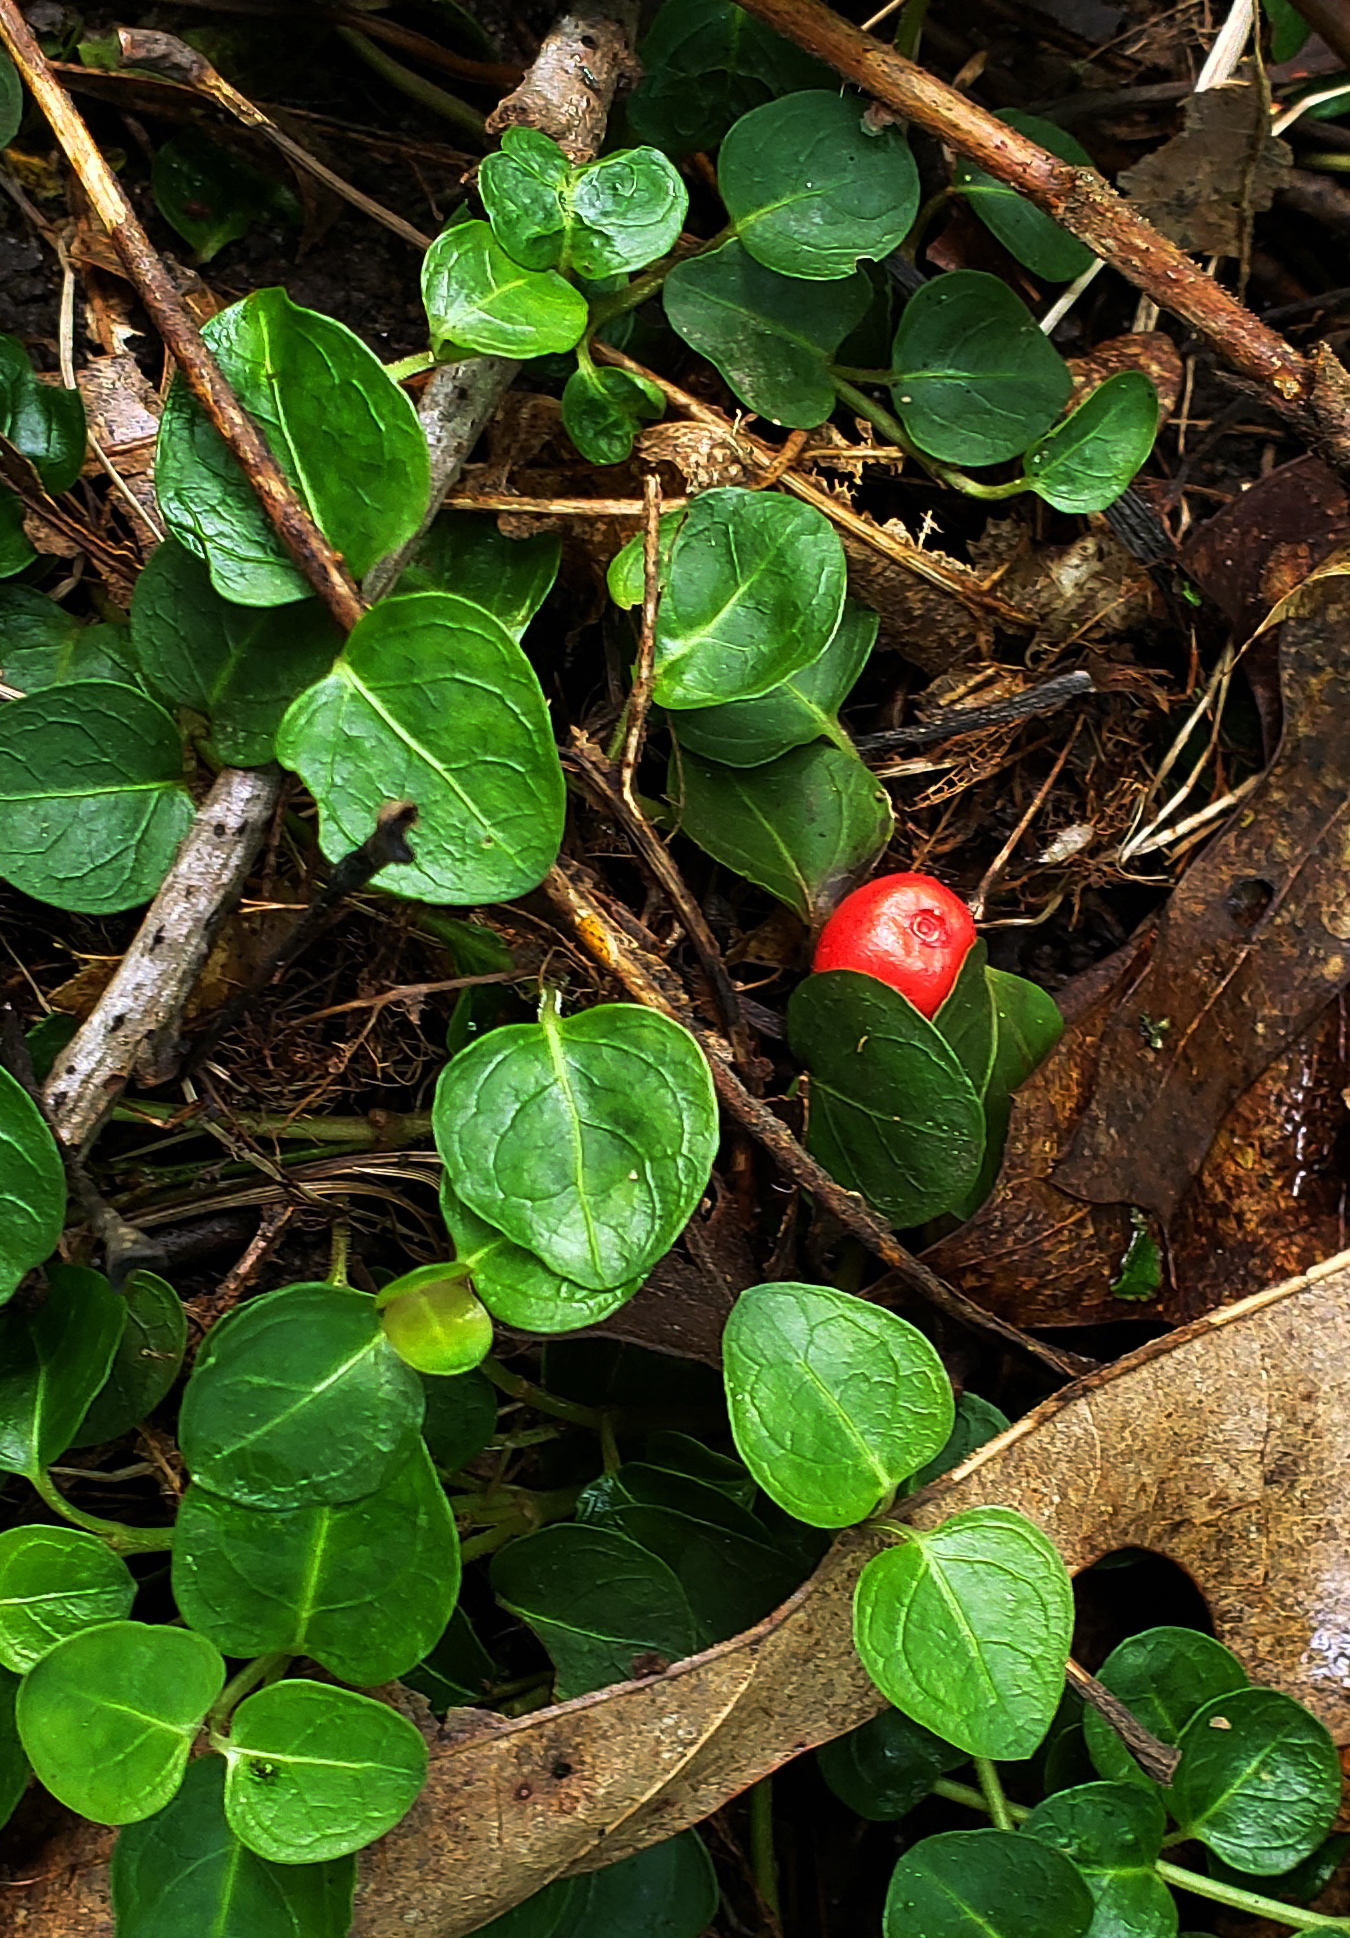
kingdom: Plantae
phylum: Tracheophyta
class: Magnoliopsida
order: Gentianales
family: Rubiaceae
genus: Mitchella
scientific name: Mitchella repens
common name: Partridge-berry
